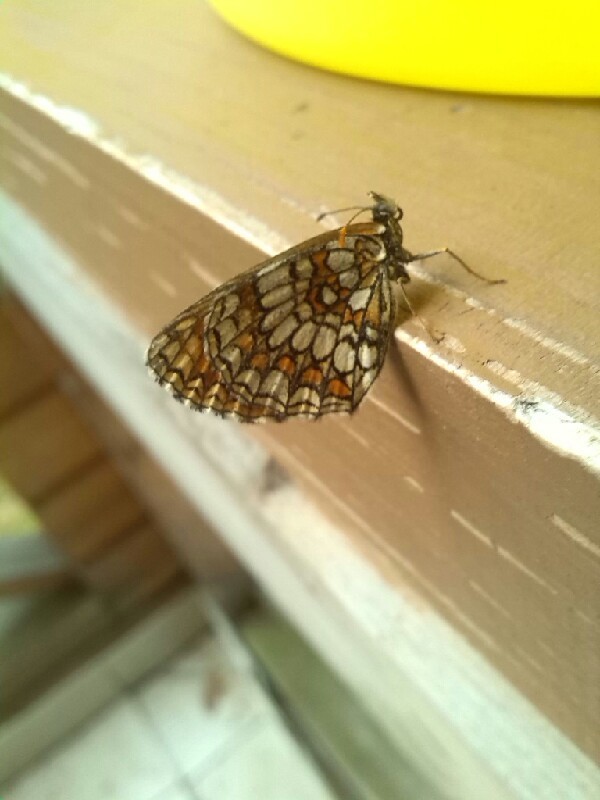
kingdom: Animalia
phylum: Arthropoda
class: Insecta
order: Lepidoptera
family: Nymphalidae
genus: Melitaea
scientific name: Melitaea athalia
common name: Heath fritillary
